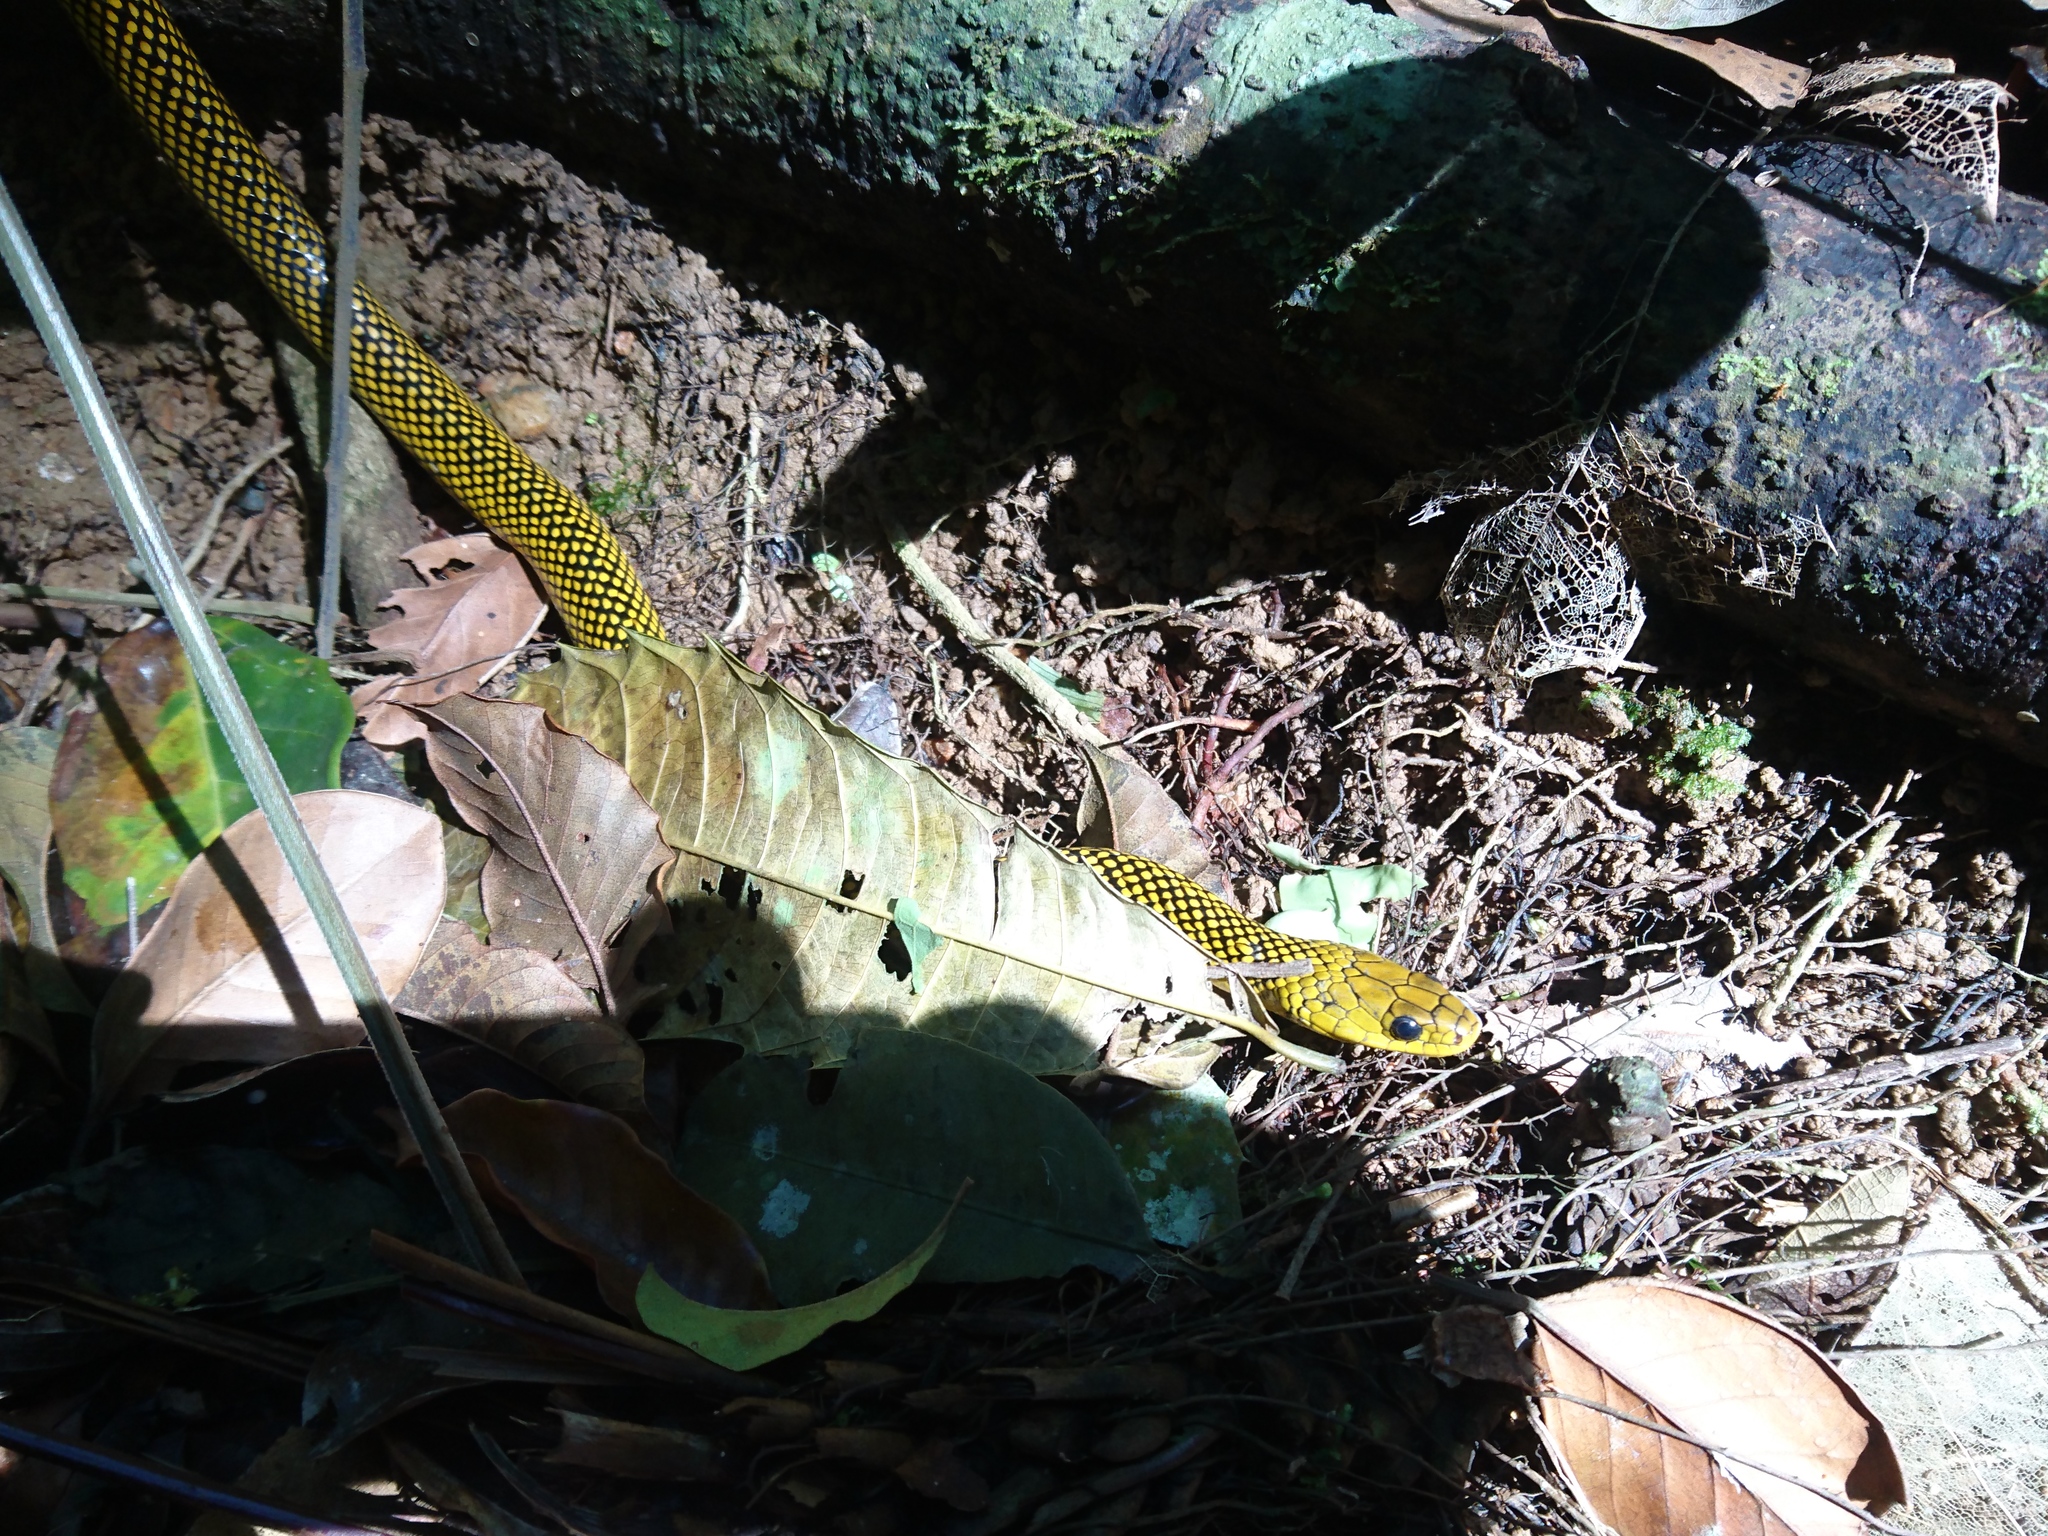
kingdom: Animalia
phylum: Chordata
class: Squamata
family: Colubridae
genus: Erythrolamprus
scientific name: Erythrolamprus miliaris
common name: Military ground snake
